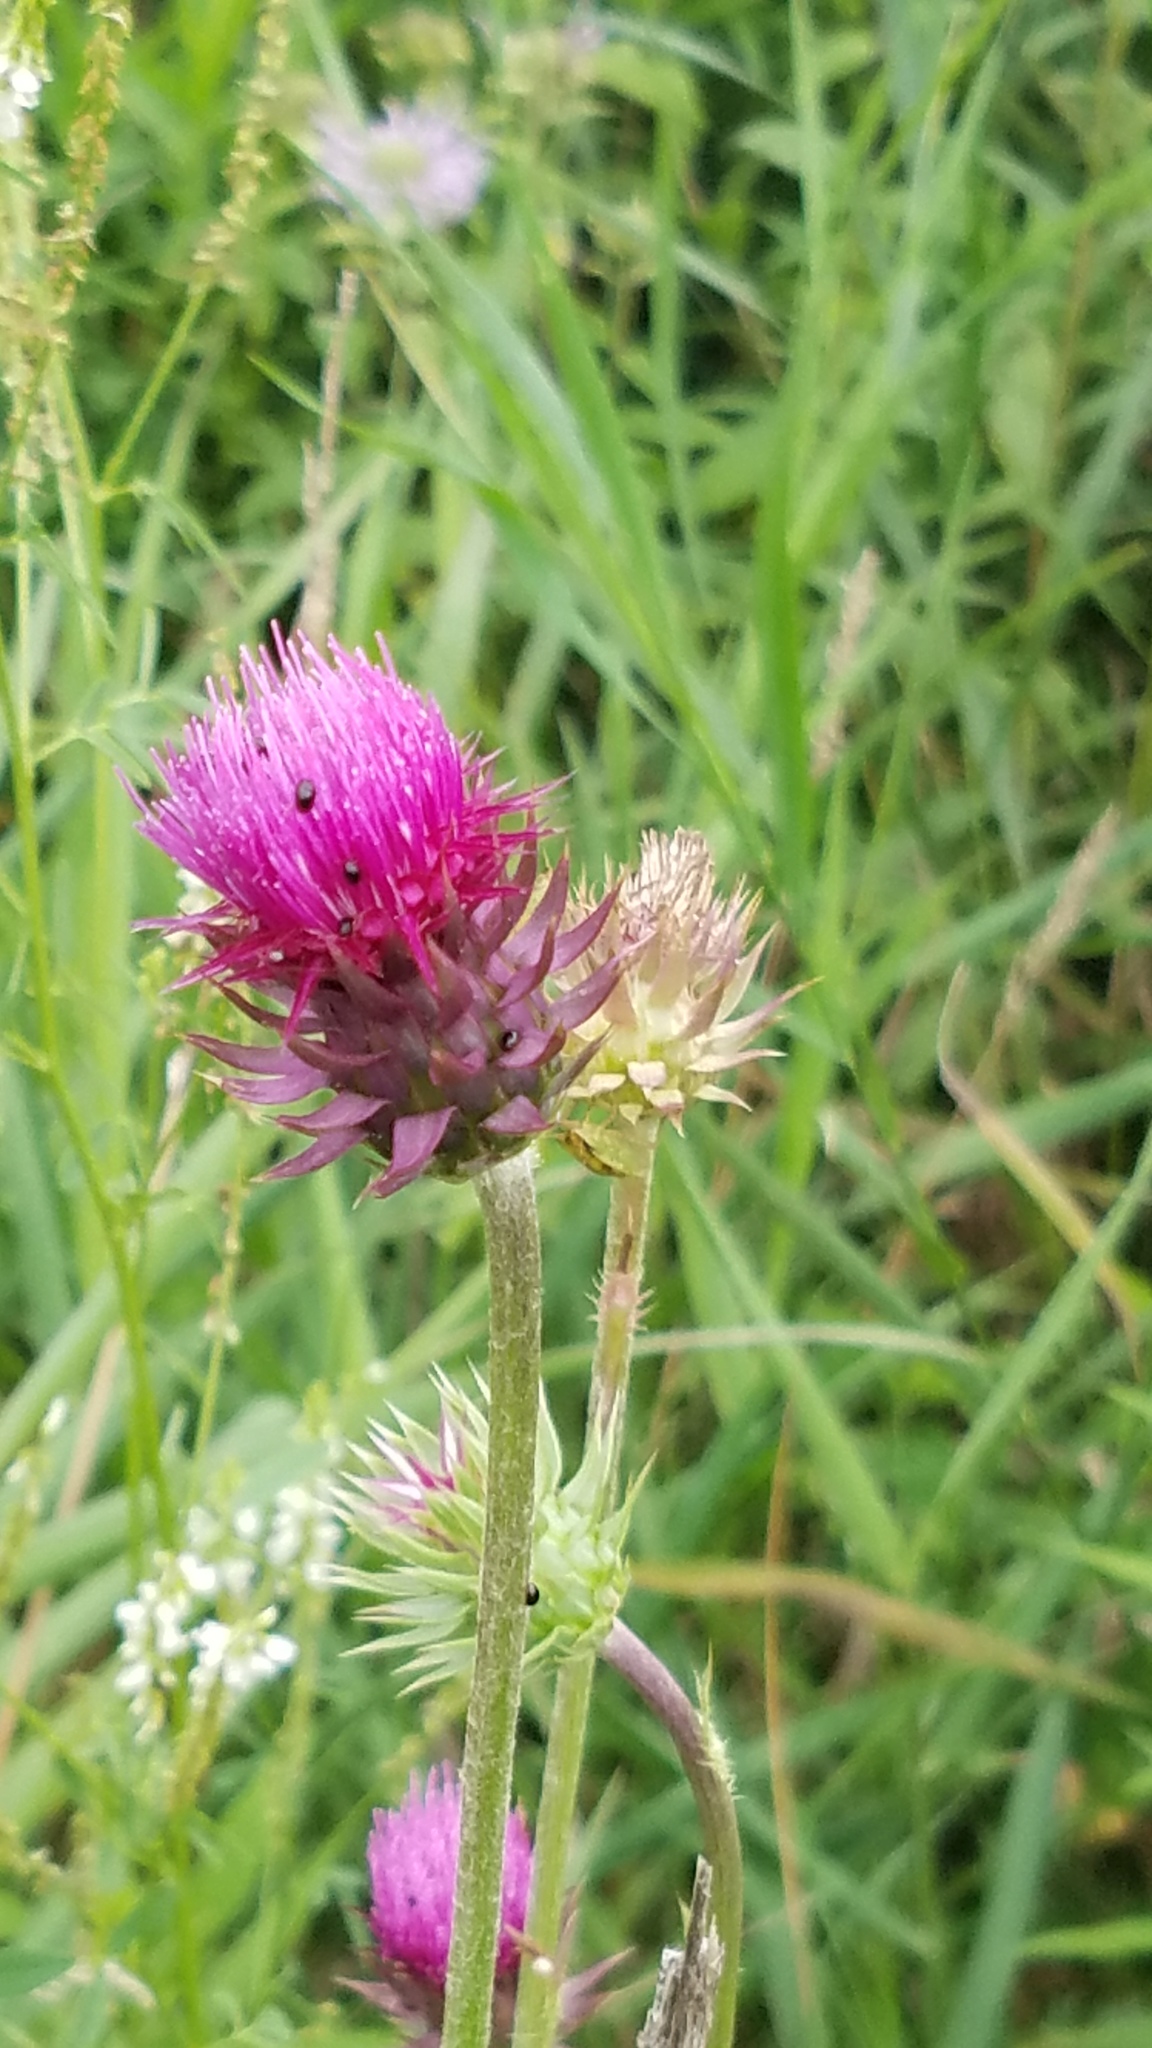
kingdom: Plantae
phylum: Tracheophyta
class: Magnoliopsida
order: Asterales
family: Asteraceae
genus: Carduus
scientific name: Carduus nutans
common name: Musk thistle
